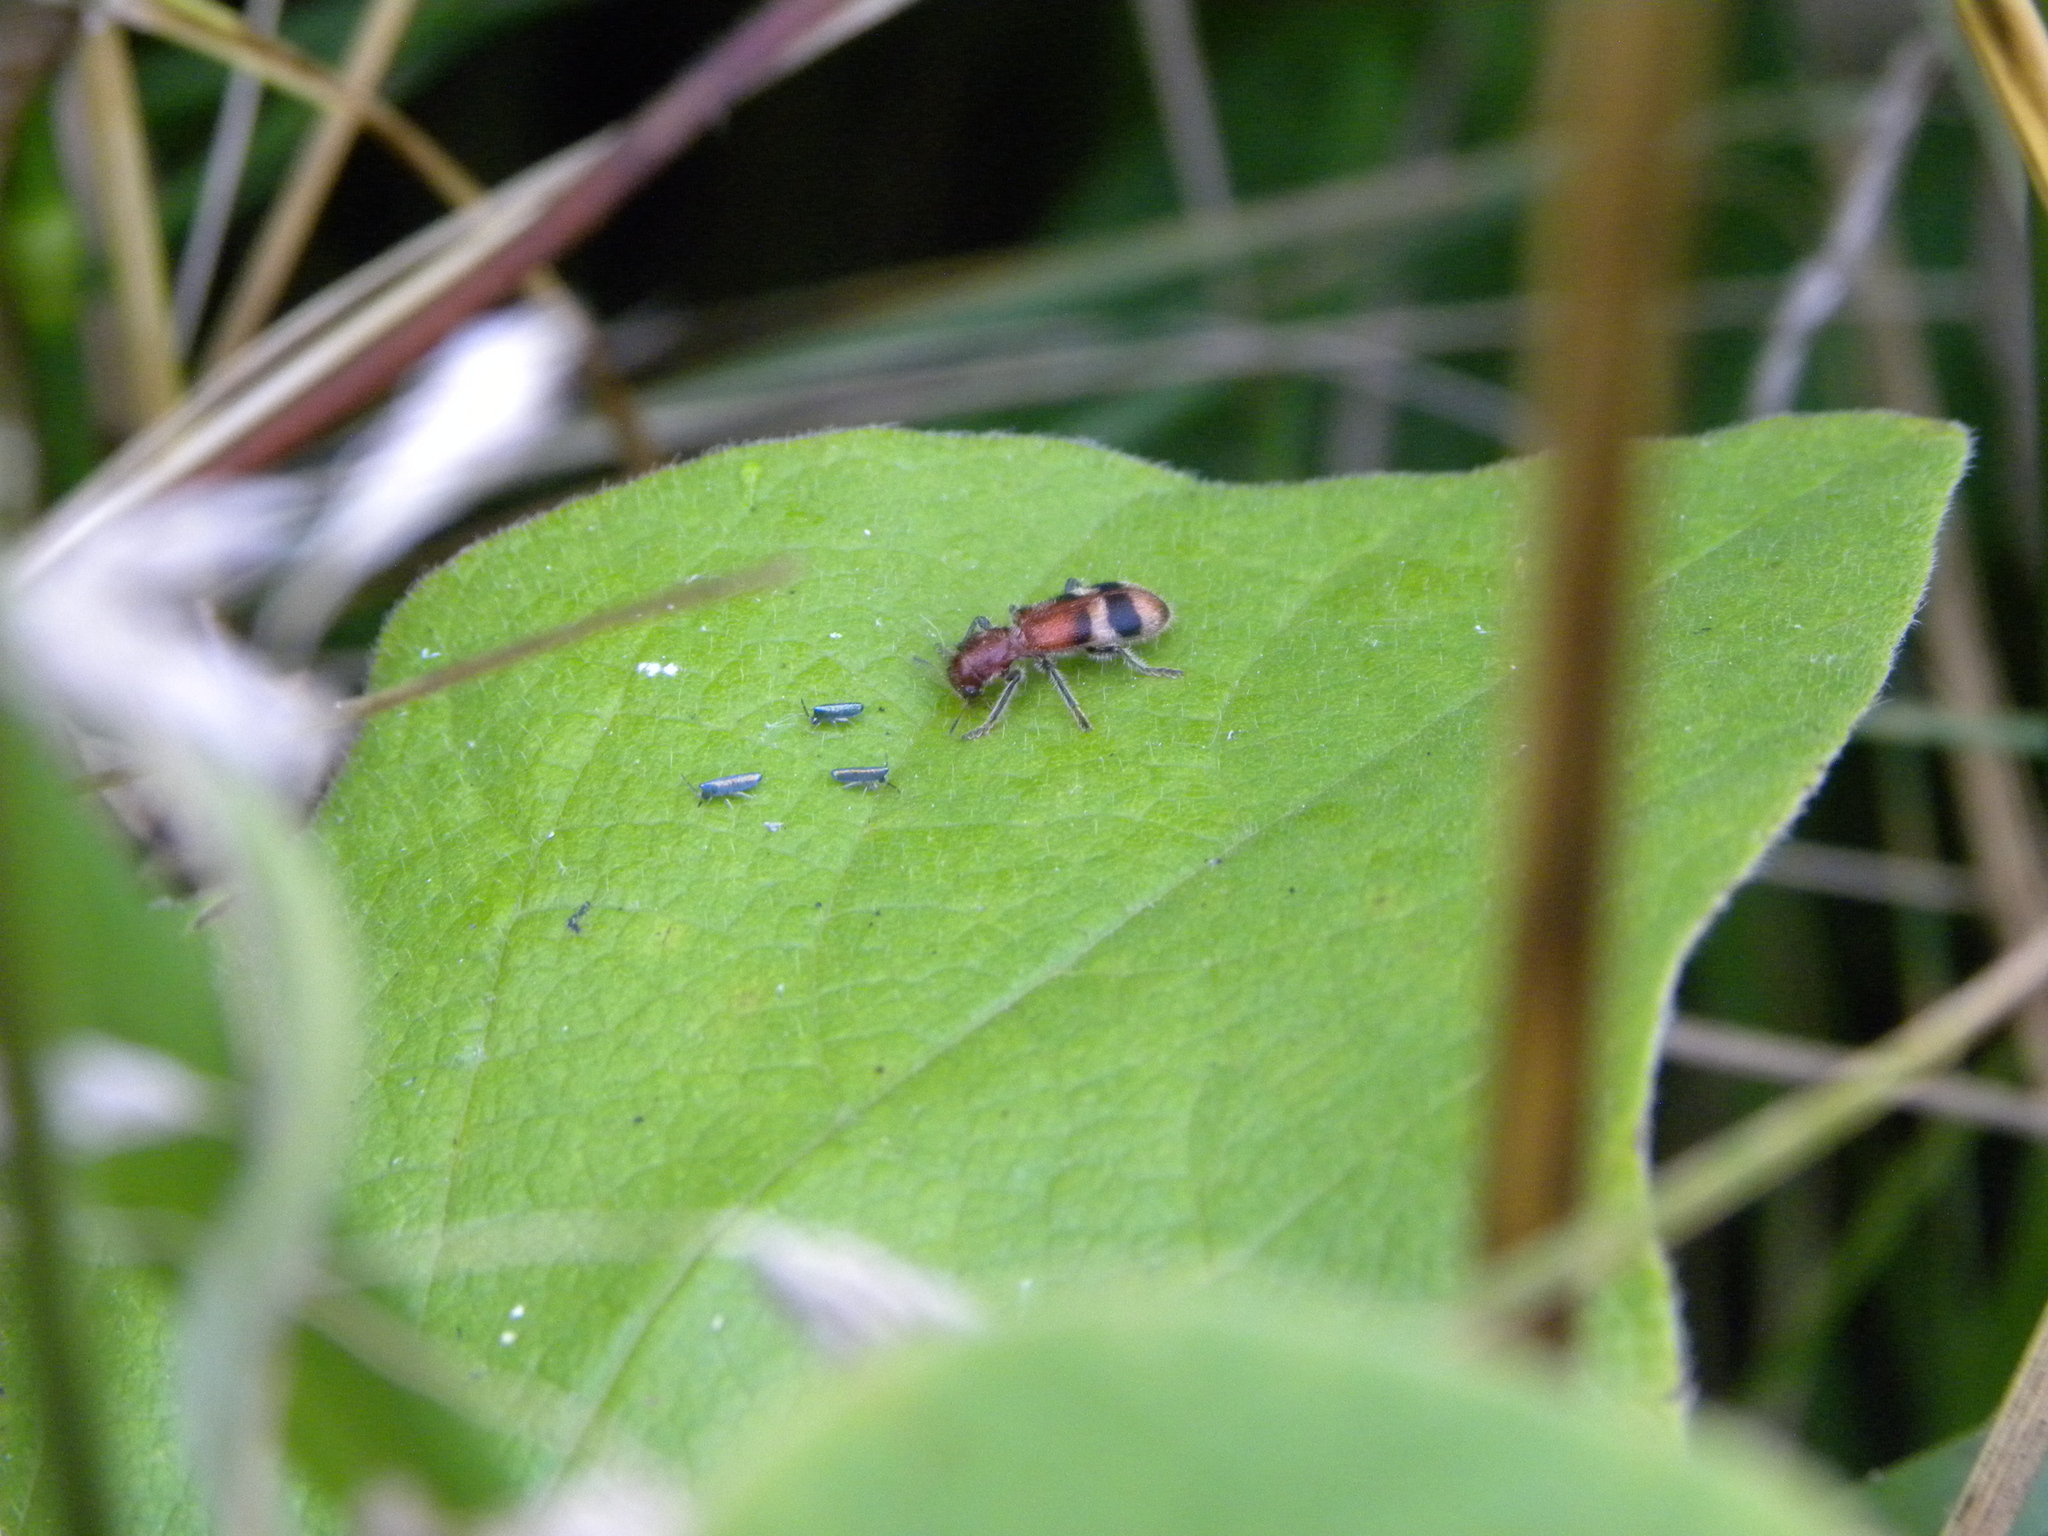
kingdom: Animalia
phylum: Arthropoda
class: Collembola
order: Entomobryomorpha
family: Entomobryidae
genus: Lepidocyrtus
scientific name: Lepidocyrtus paradoxus
